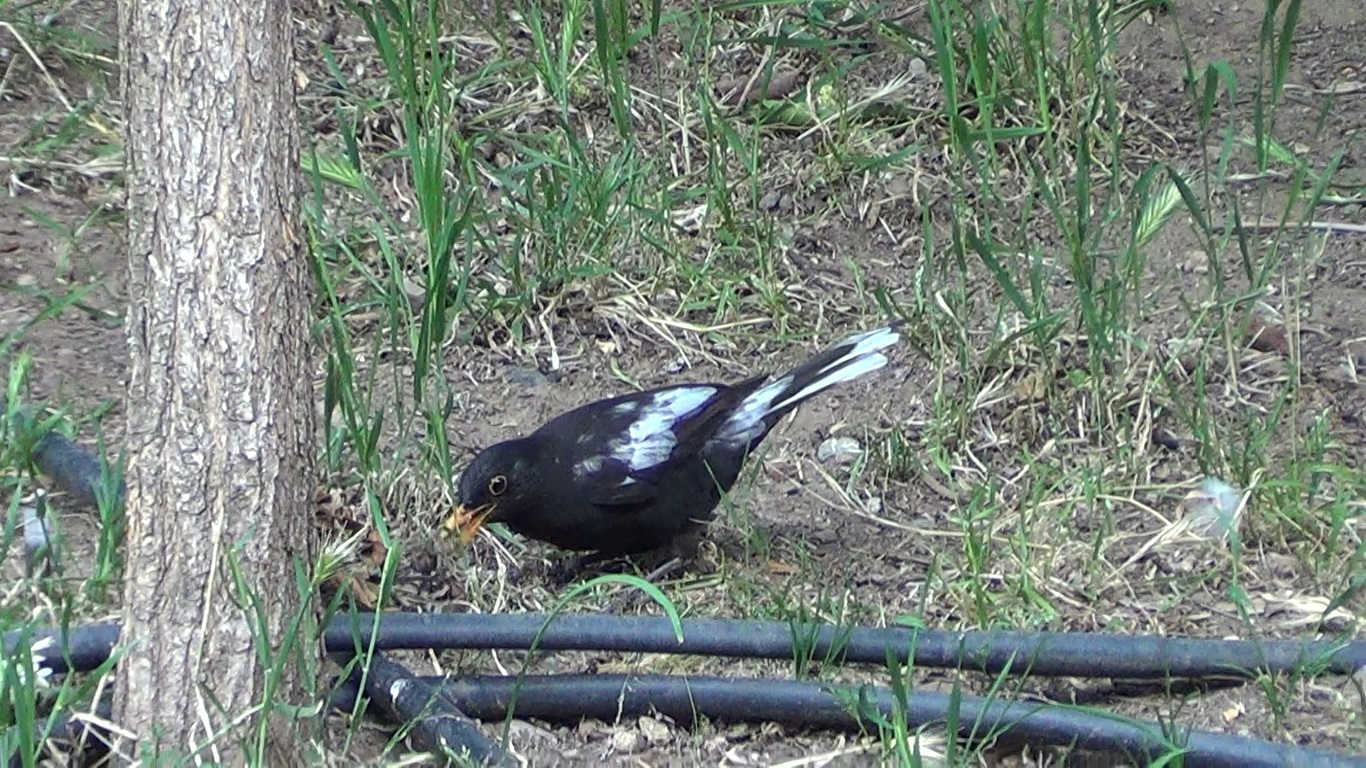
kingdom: Animalia
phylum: Chordata
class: Aves
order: Passeriformes
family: Turdidae
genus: Turdus
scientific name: Turdus merula
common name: Common blackbird
